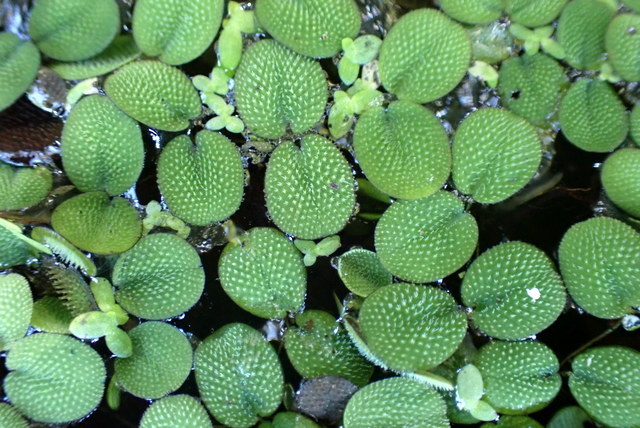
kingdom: Plantae
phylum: Tracheophyta
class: Polypodiopsida
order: Salviniales
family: Salviniaceae
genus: Salvinia
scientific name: Salvinia minima
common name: Water spangles
